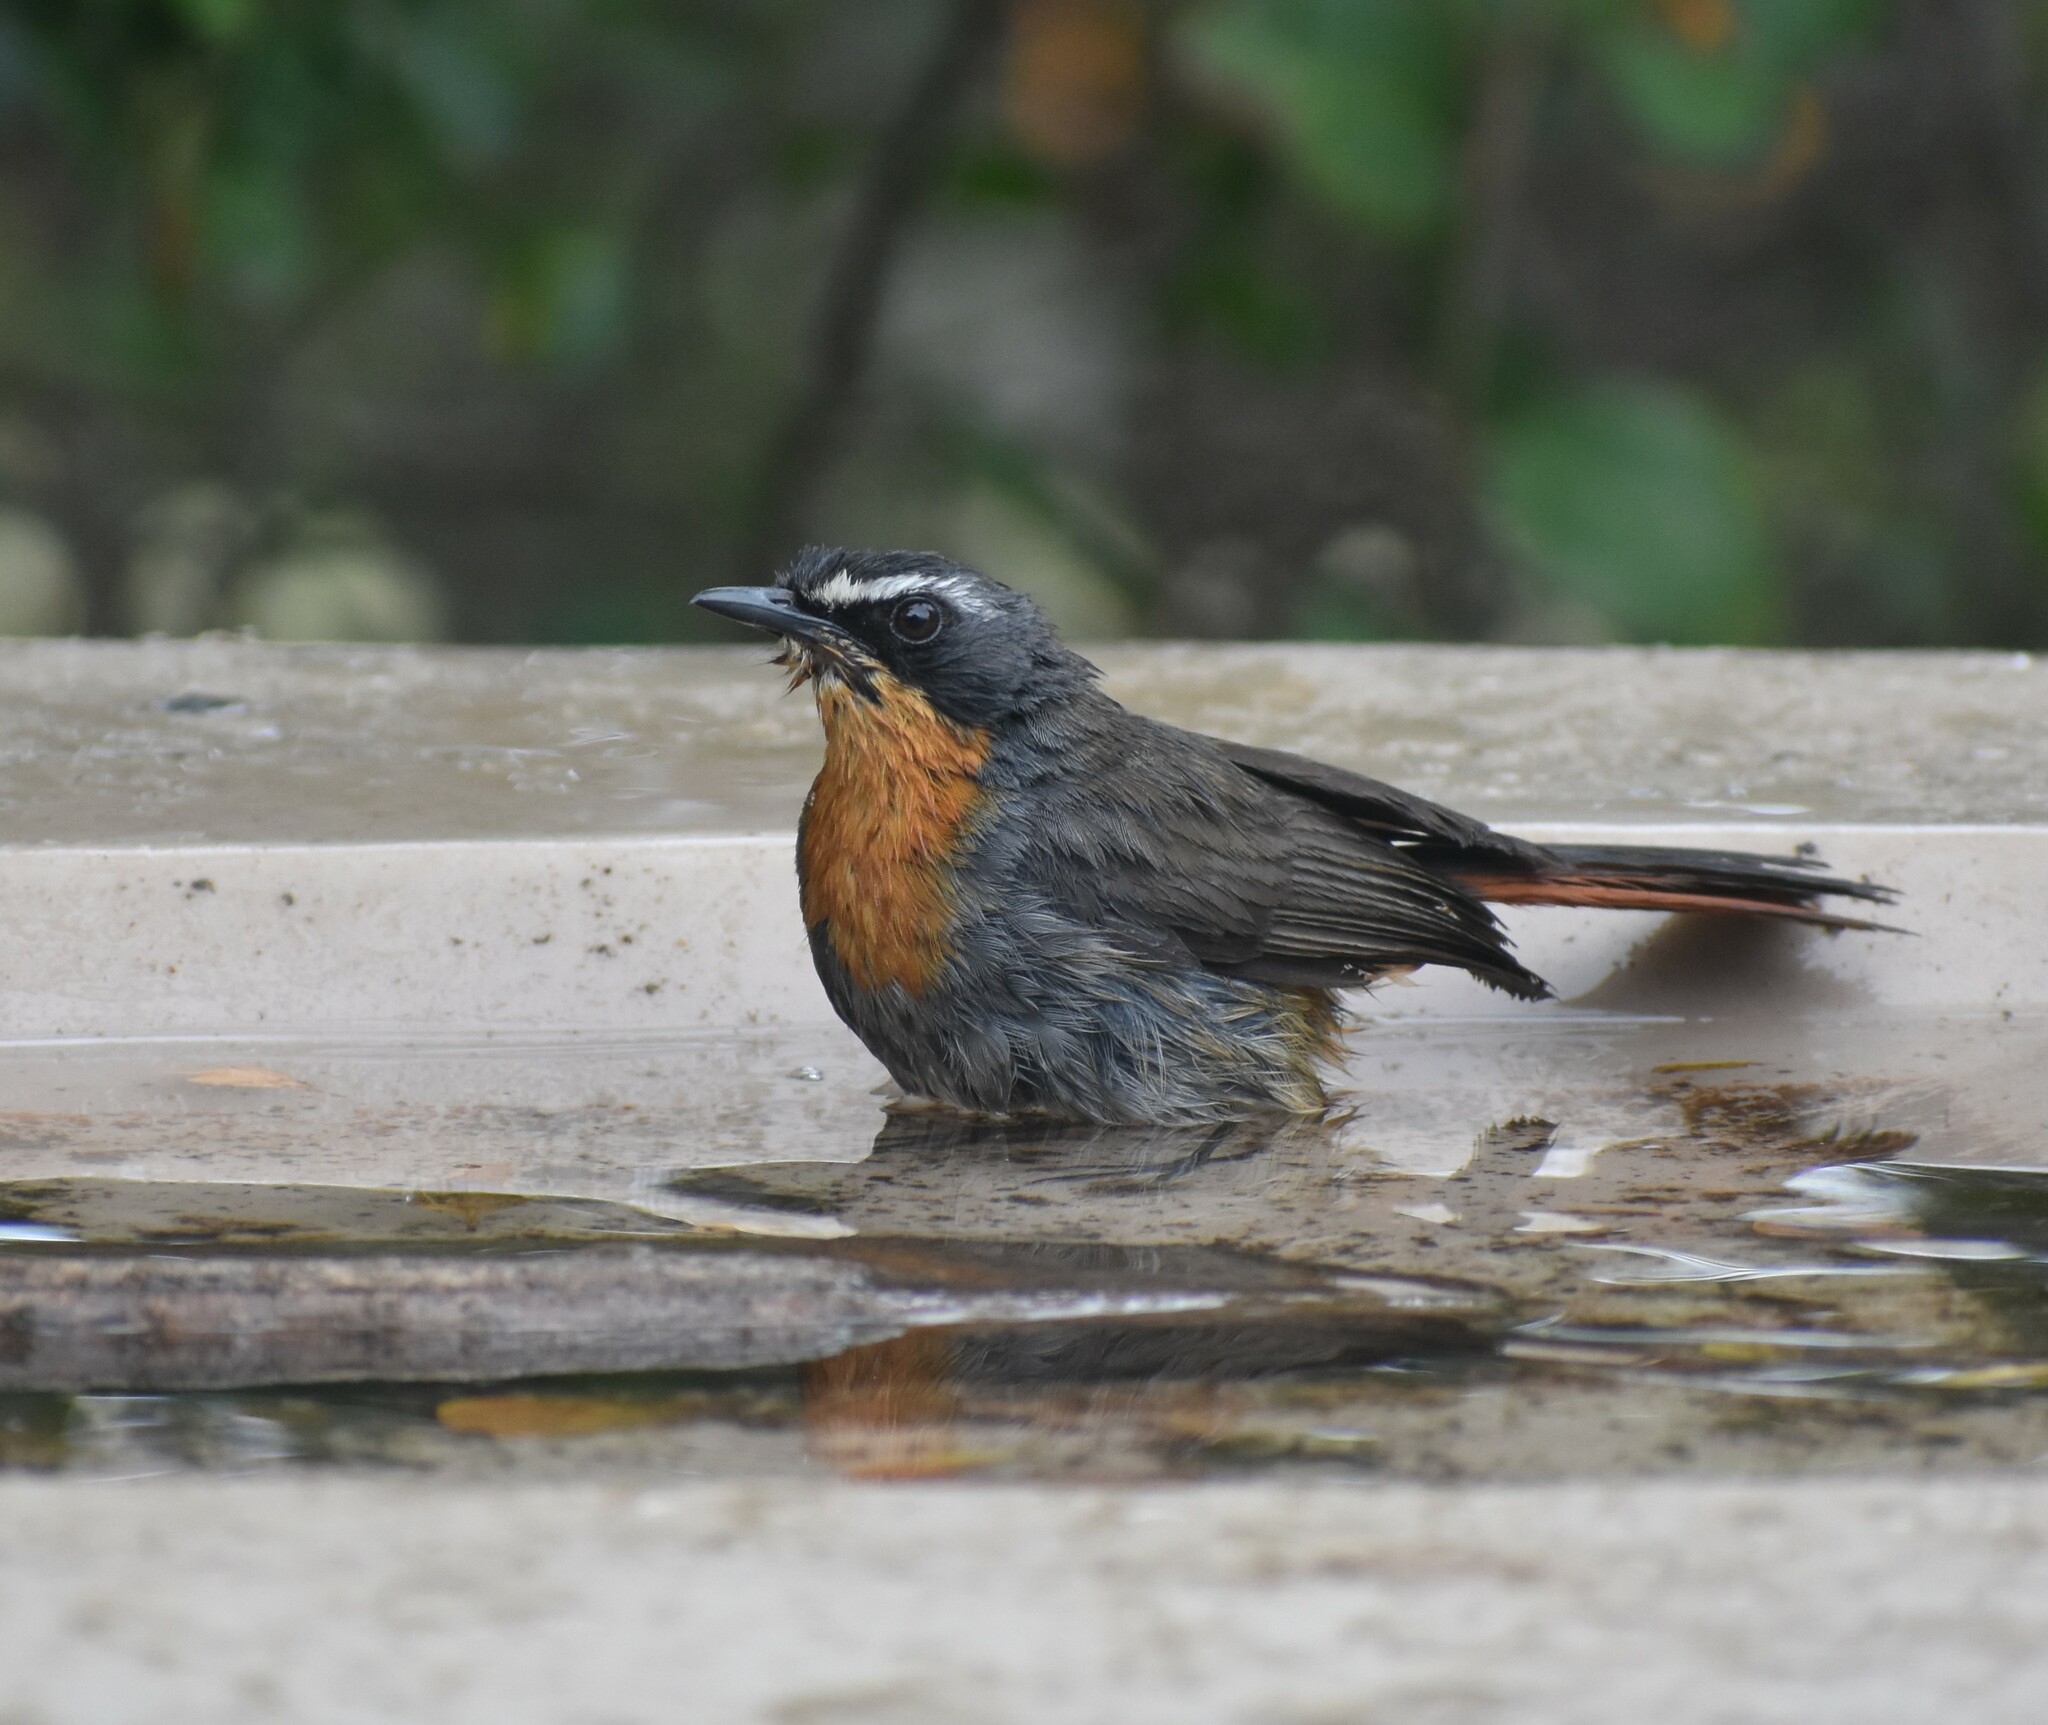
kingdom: Animalia
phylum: Chordata
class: Aves
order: Passeriformes
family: Muscicapidae
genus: Cossypha
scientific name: Cossypha caffra
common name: Cape robin-chat
